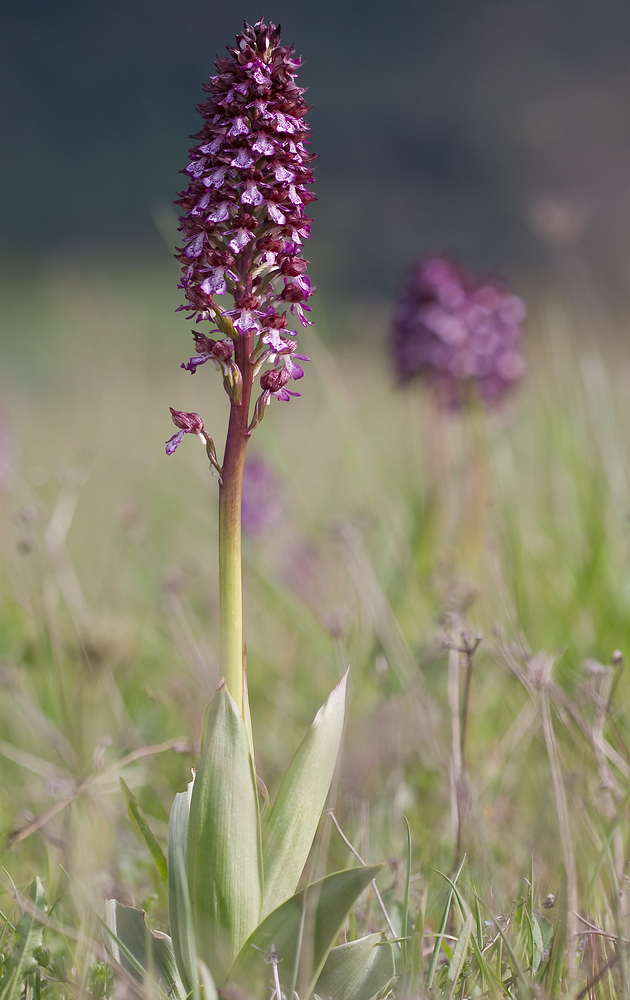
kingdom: Plantae
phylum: Tracheophyta
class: Liliopsida
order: Asparagales
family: Orchidaceae
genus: Orchis
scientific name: Orchis purpurea
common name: Lady orchid
